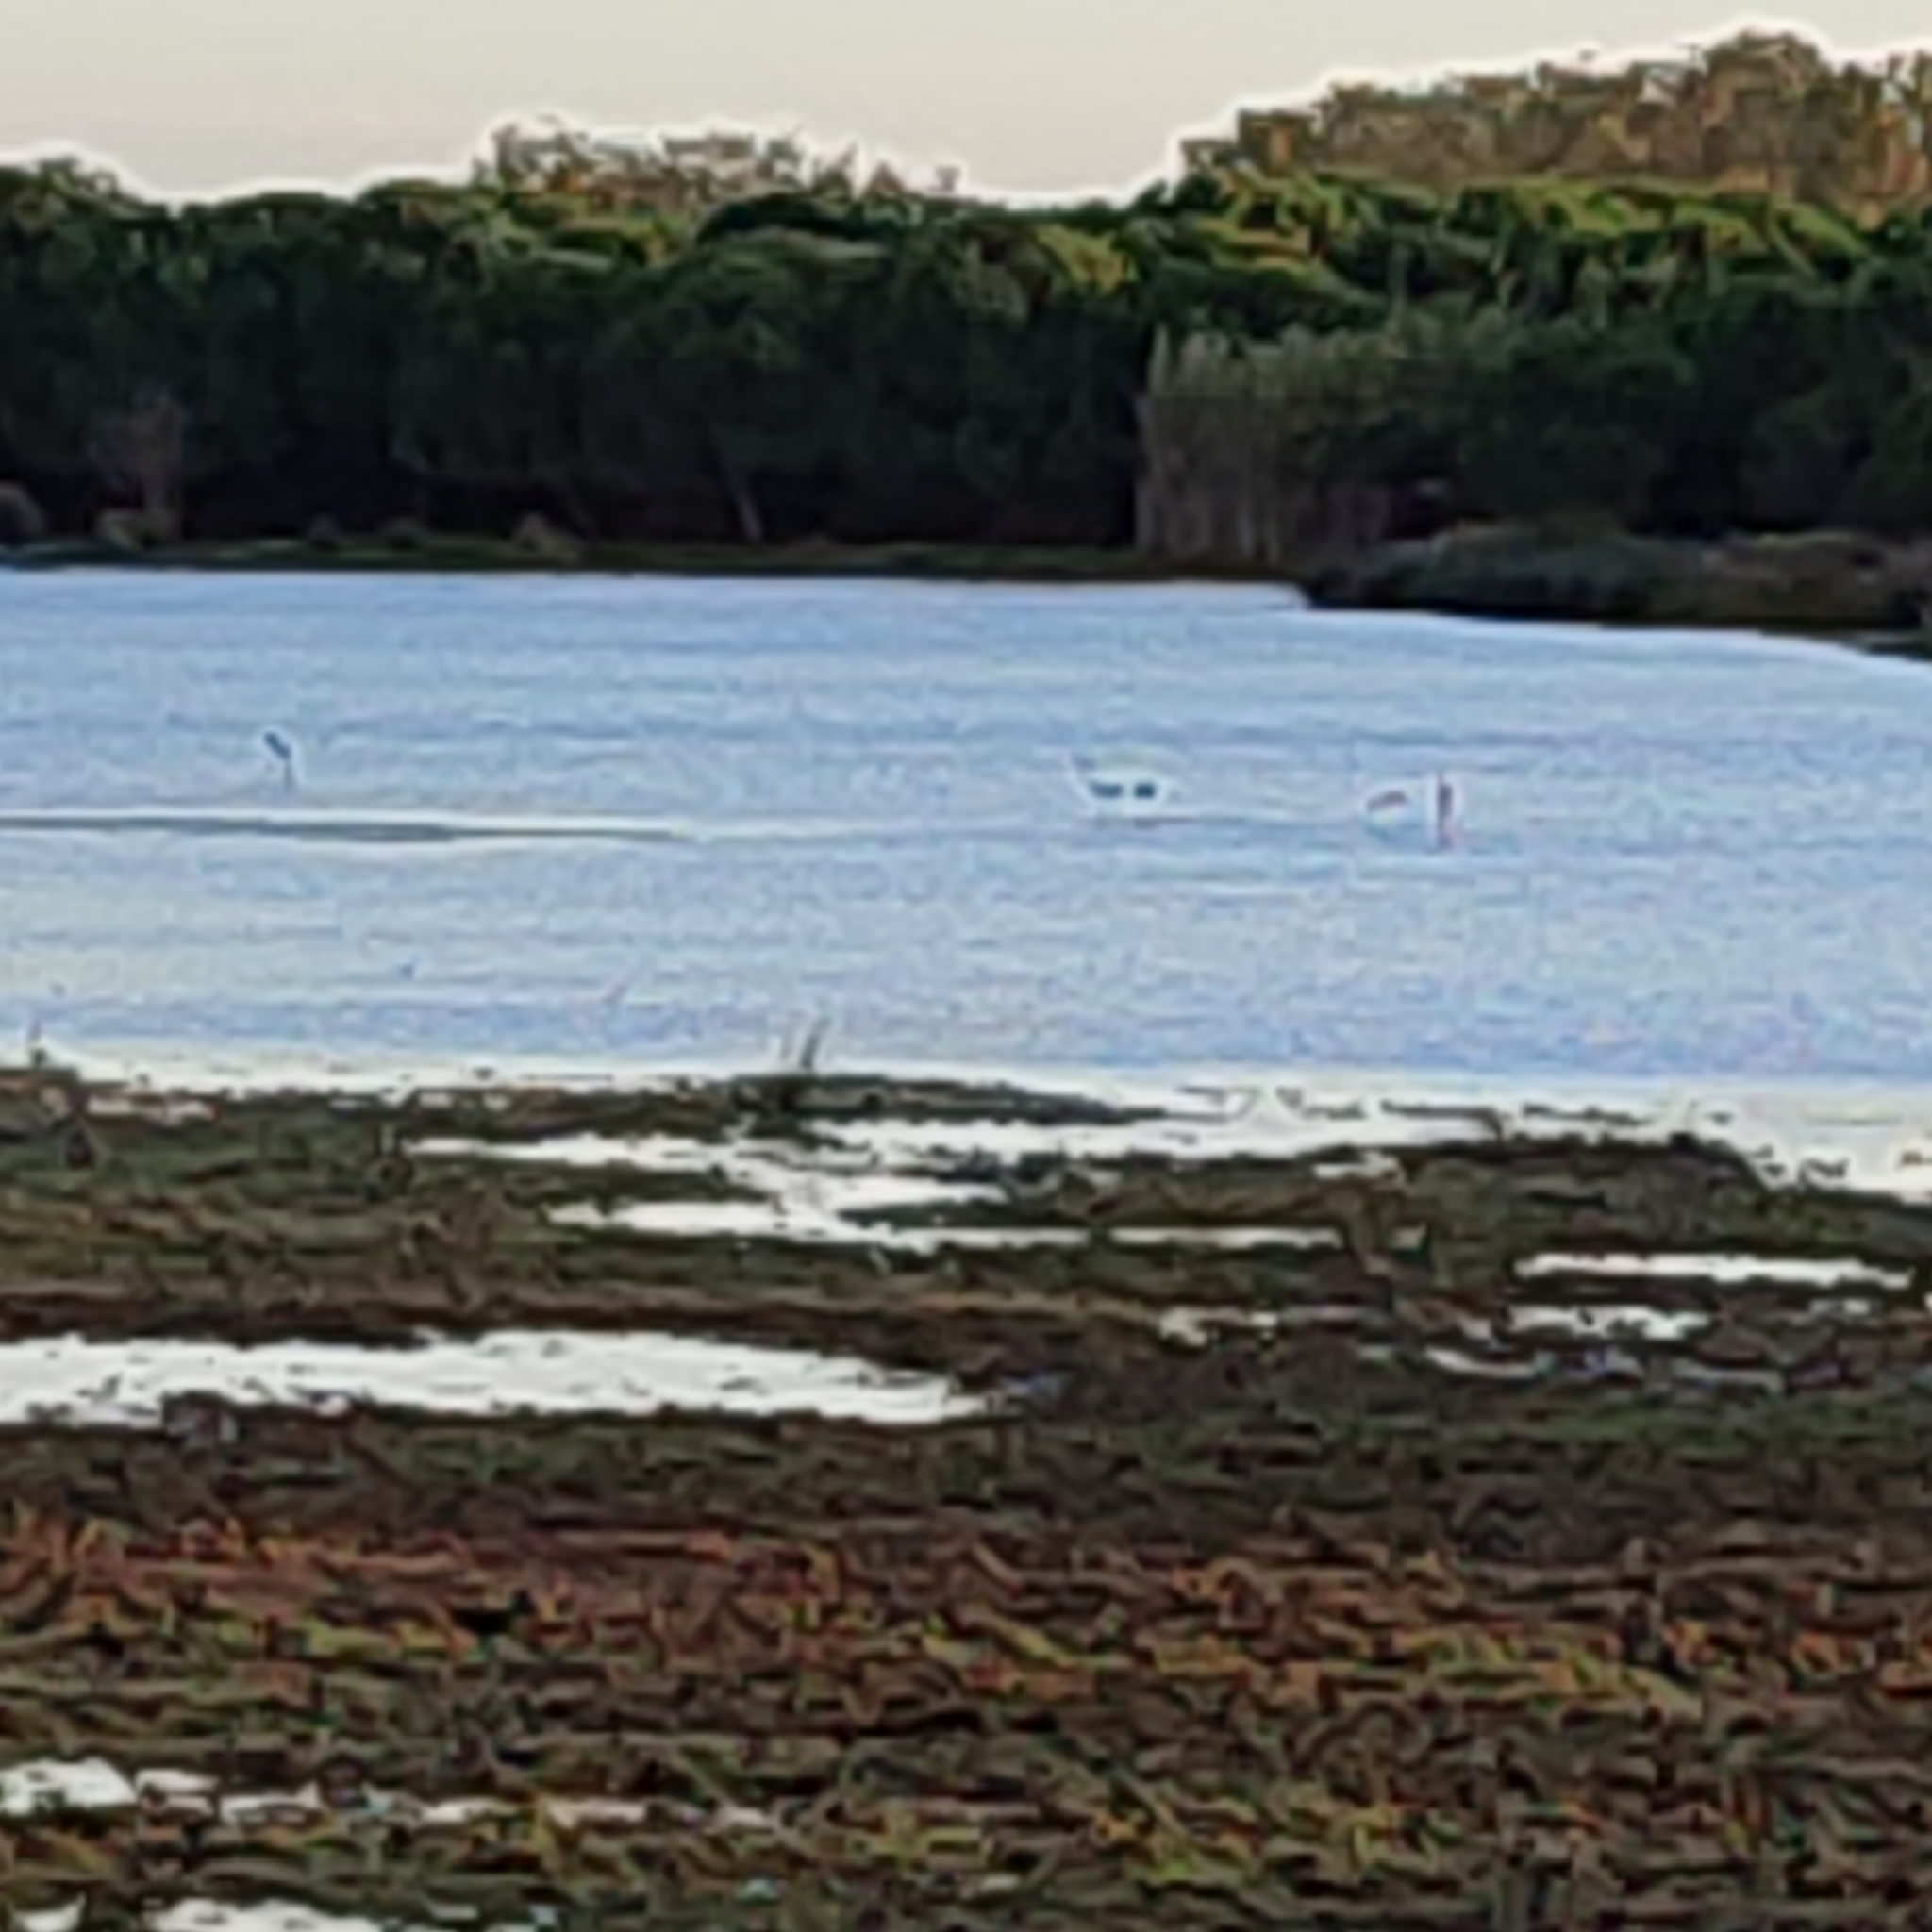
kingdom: Animalia
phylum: Chordata
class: Aves
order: Phoenicopteriformes
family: Phoenicopteridae
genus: Phoenicopterus
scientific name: Phoenicopterus roseus
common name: Greater flamingo
